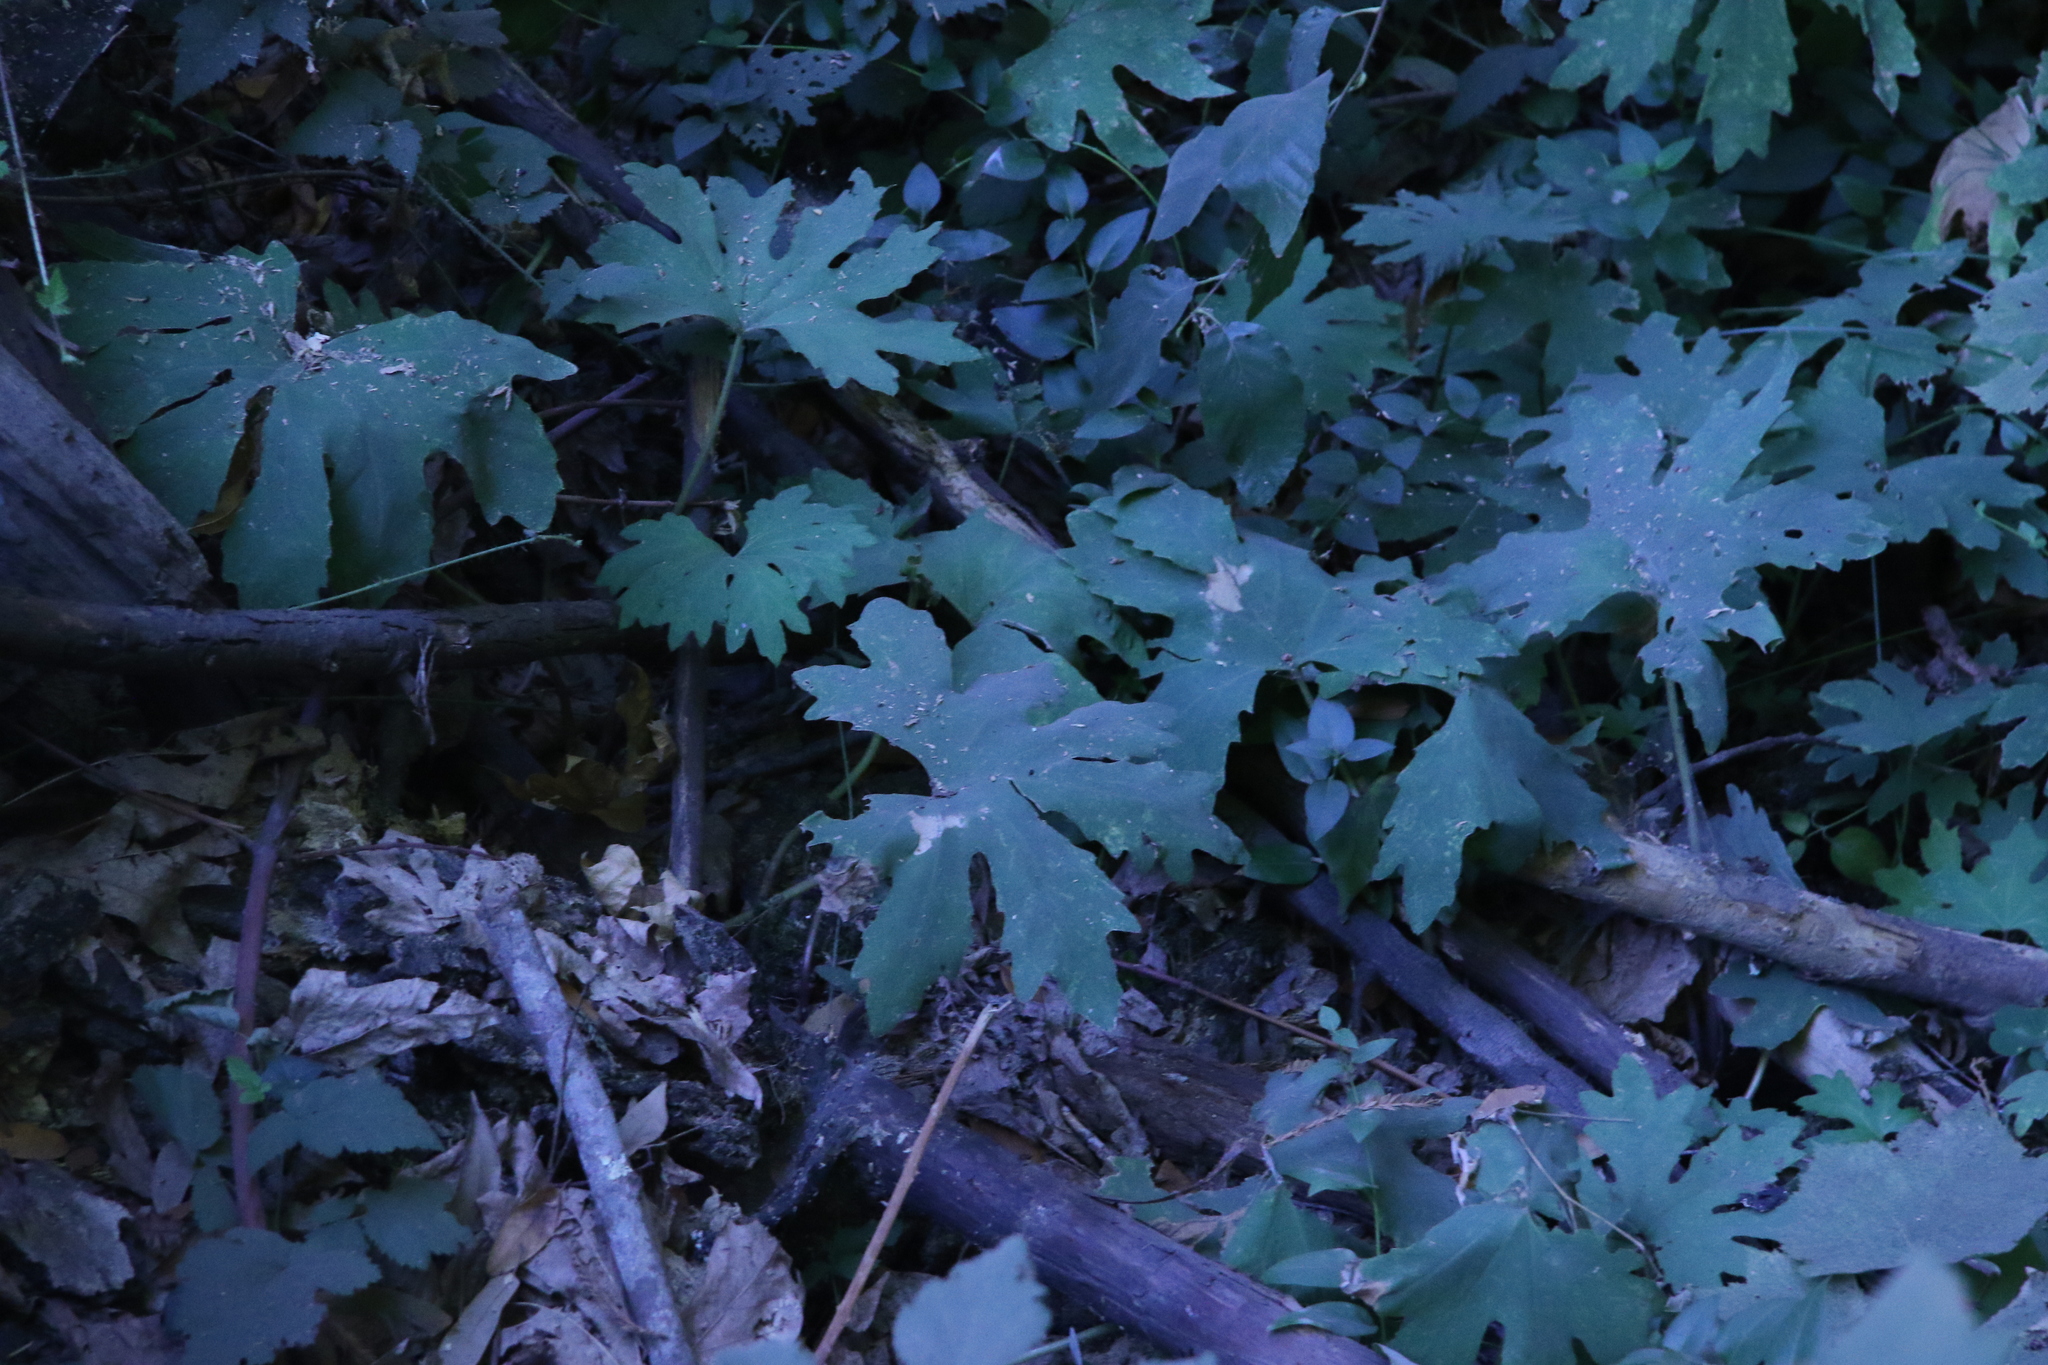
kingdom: Plantae
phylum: Tracheophyta
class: Magnoliopsida
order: Asterales
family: Asteraceae
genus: Petasites
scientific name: Petasites frigidus
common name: Arctic butterbur
